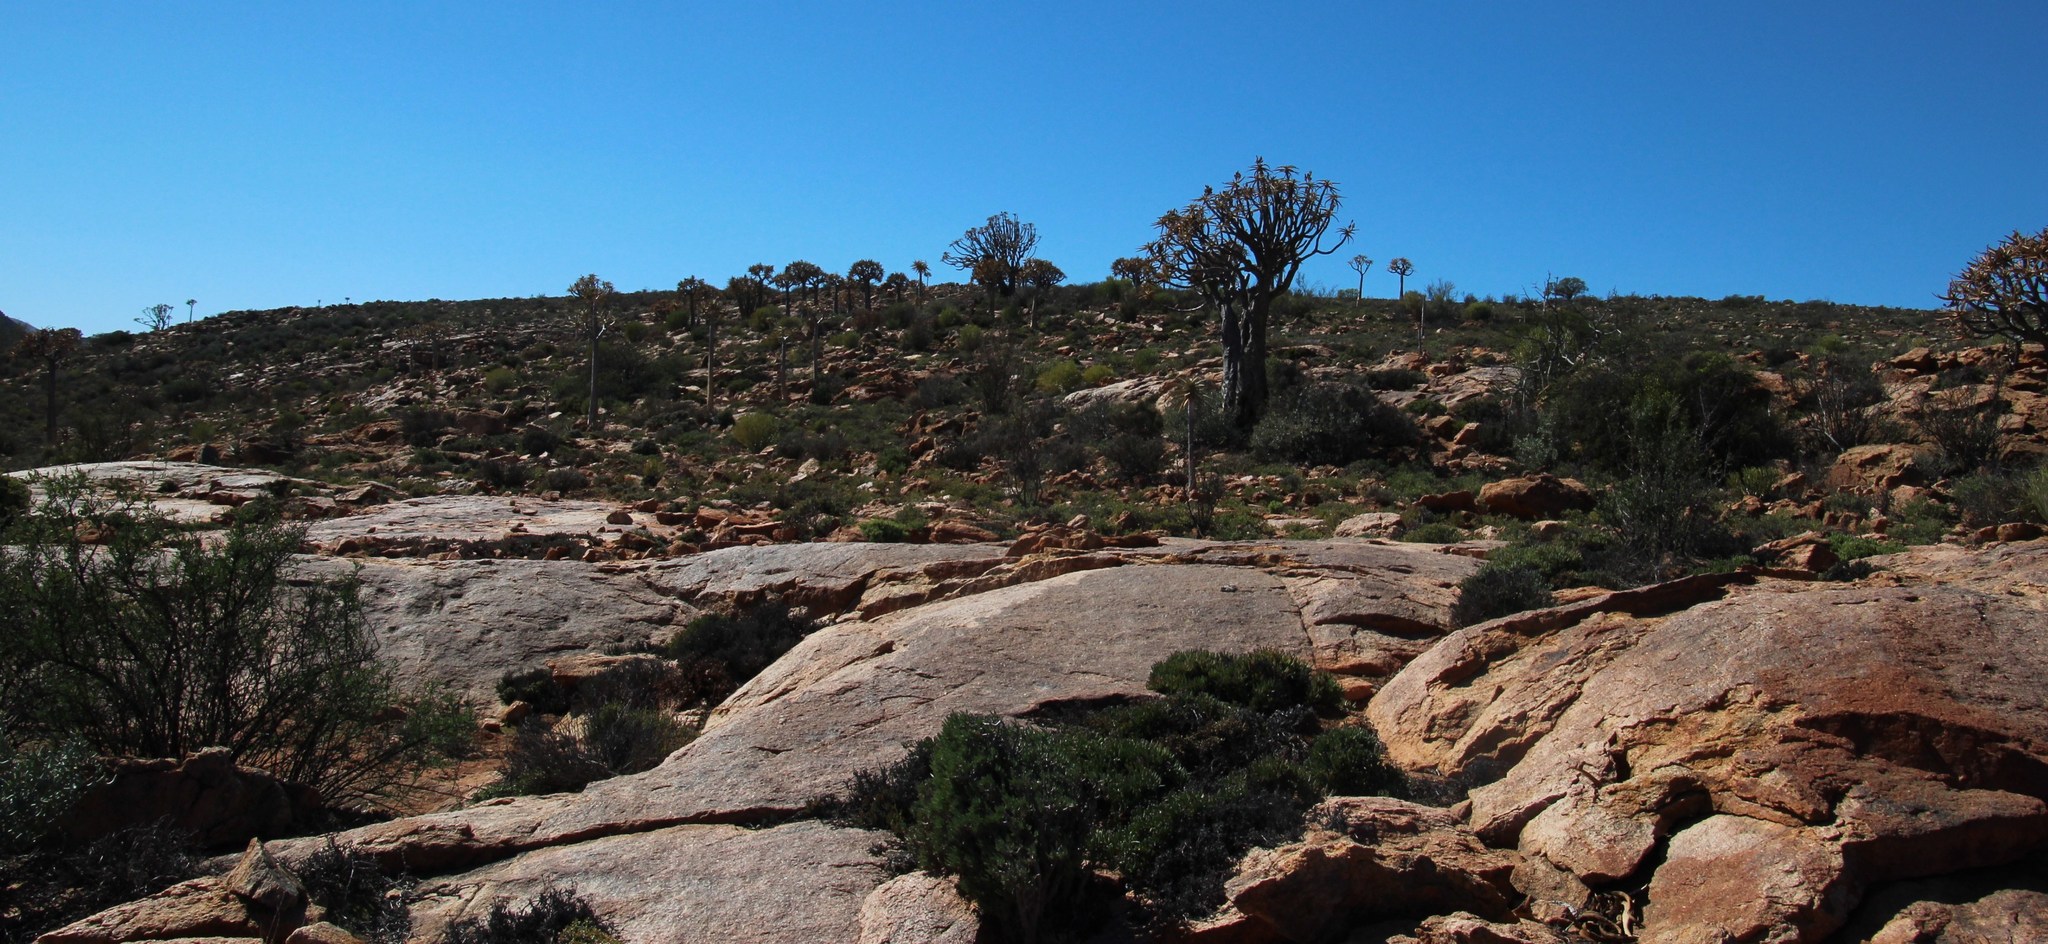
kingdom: Plantae
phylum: Tracheophyta
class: Liliopsida
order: Asparagales
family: Asphodelaceae
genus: Aloidendron
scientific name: Aloidendron dichotomum
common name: Quiver tree
